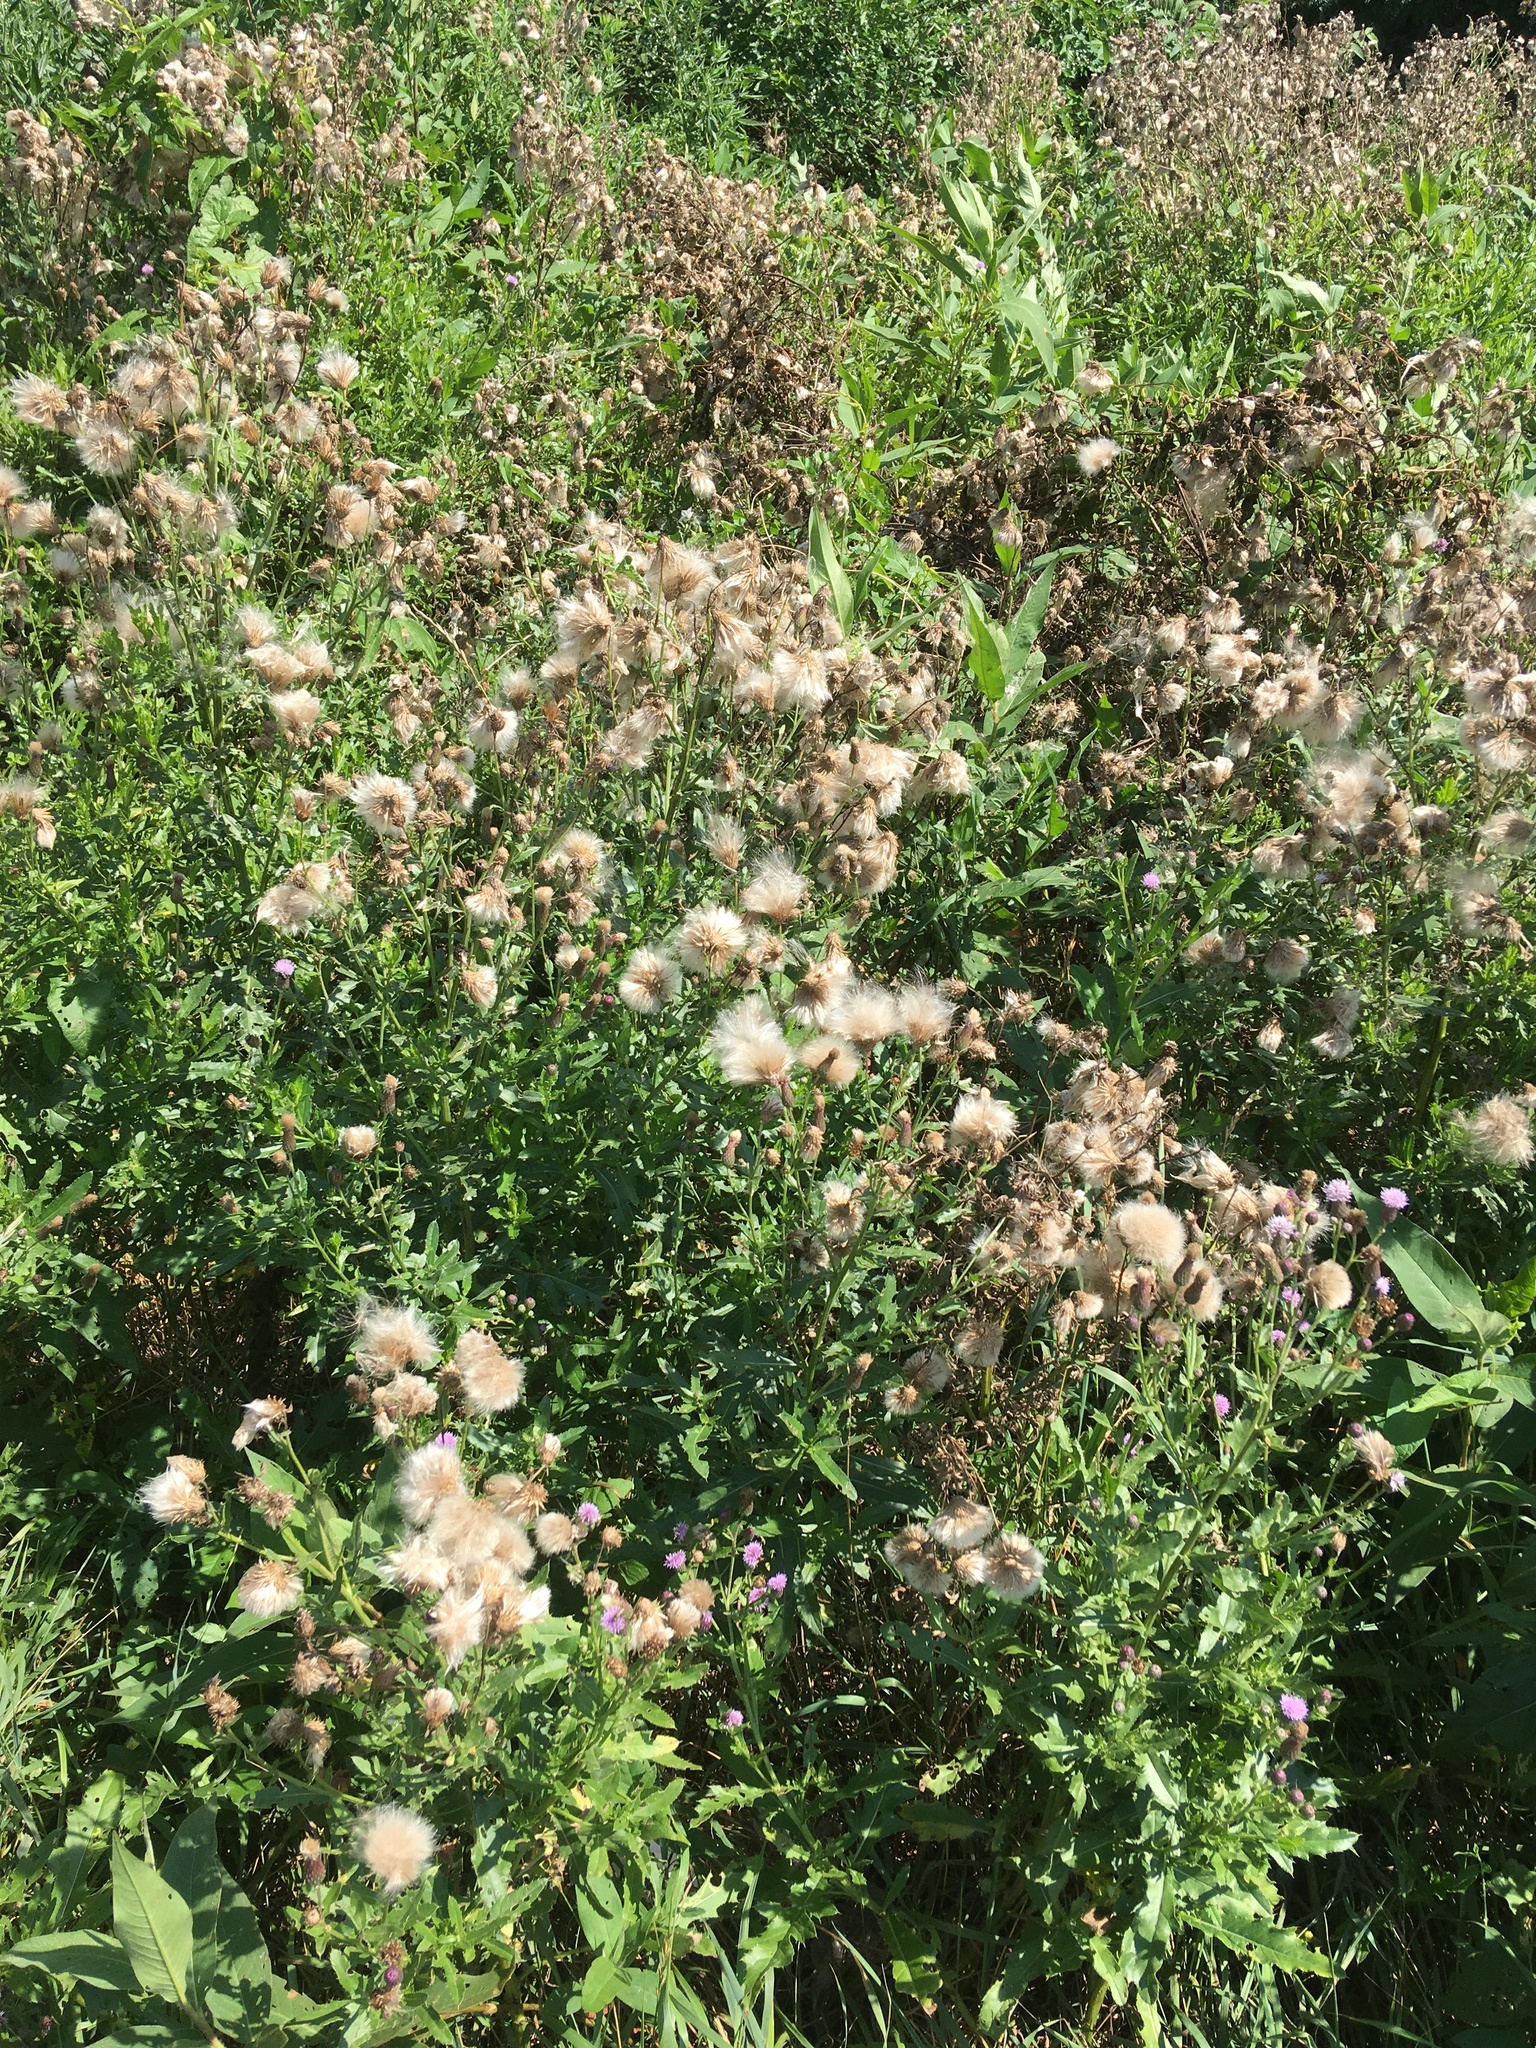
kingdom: Plantae
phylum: Tracheophyta
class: Magnoliopsida
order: Asterales
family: Asteraceae
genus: Cirsium
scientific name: Cirsium arvense
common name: Creeping thistle
